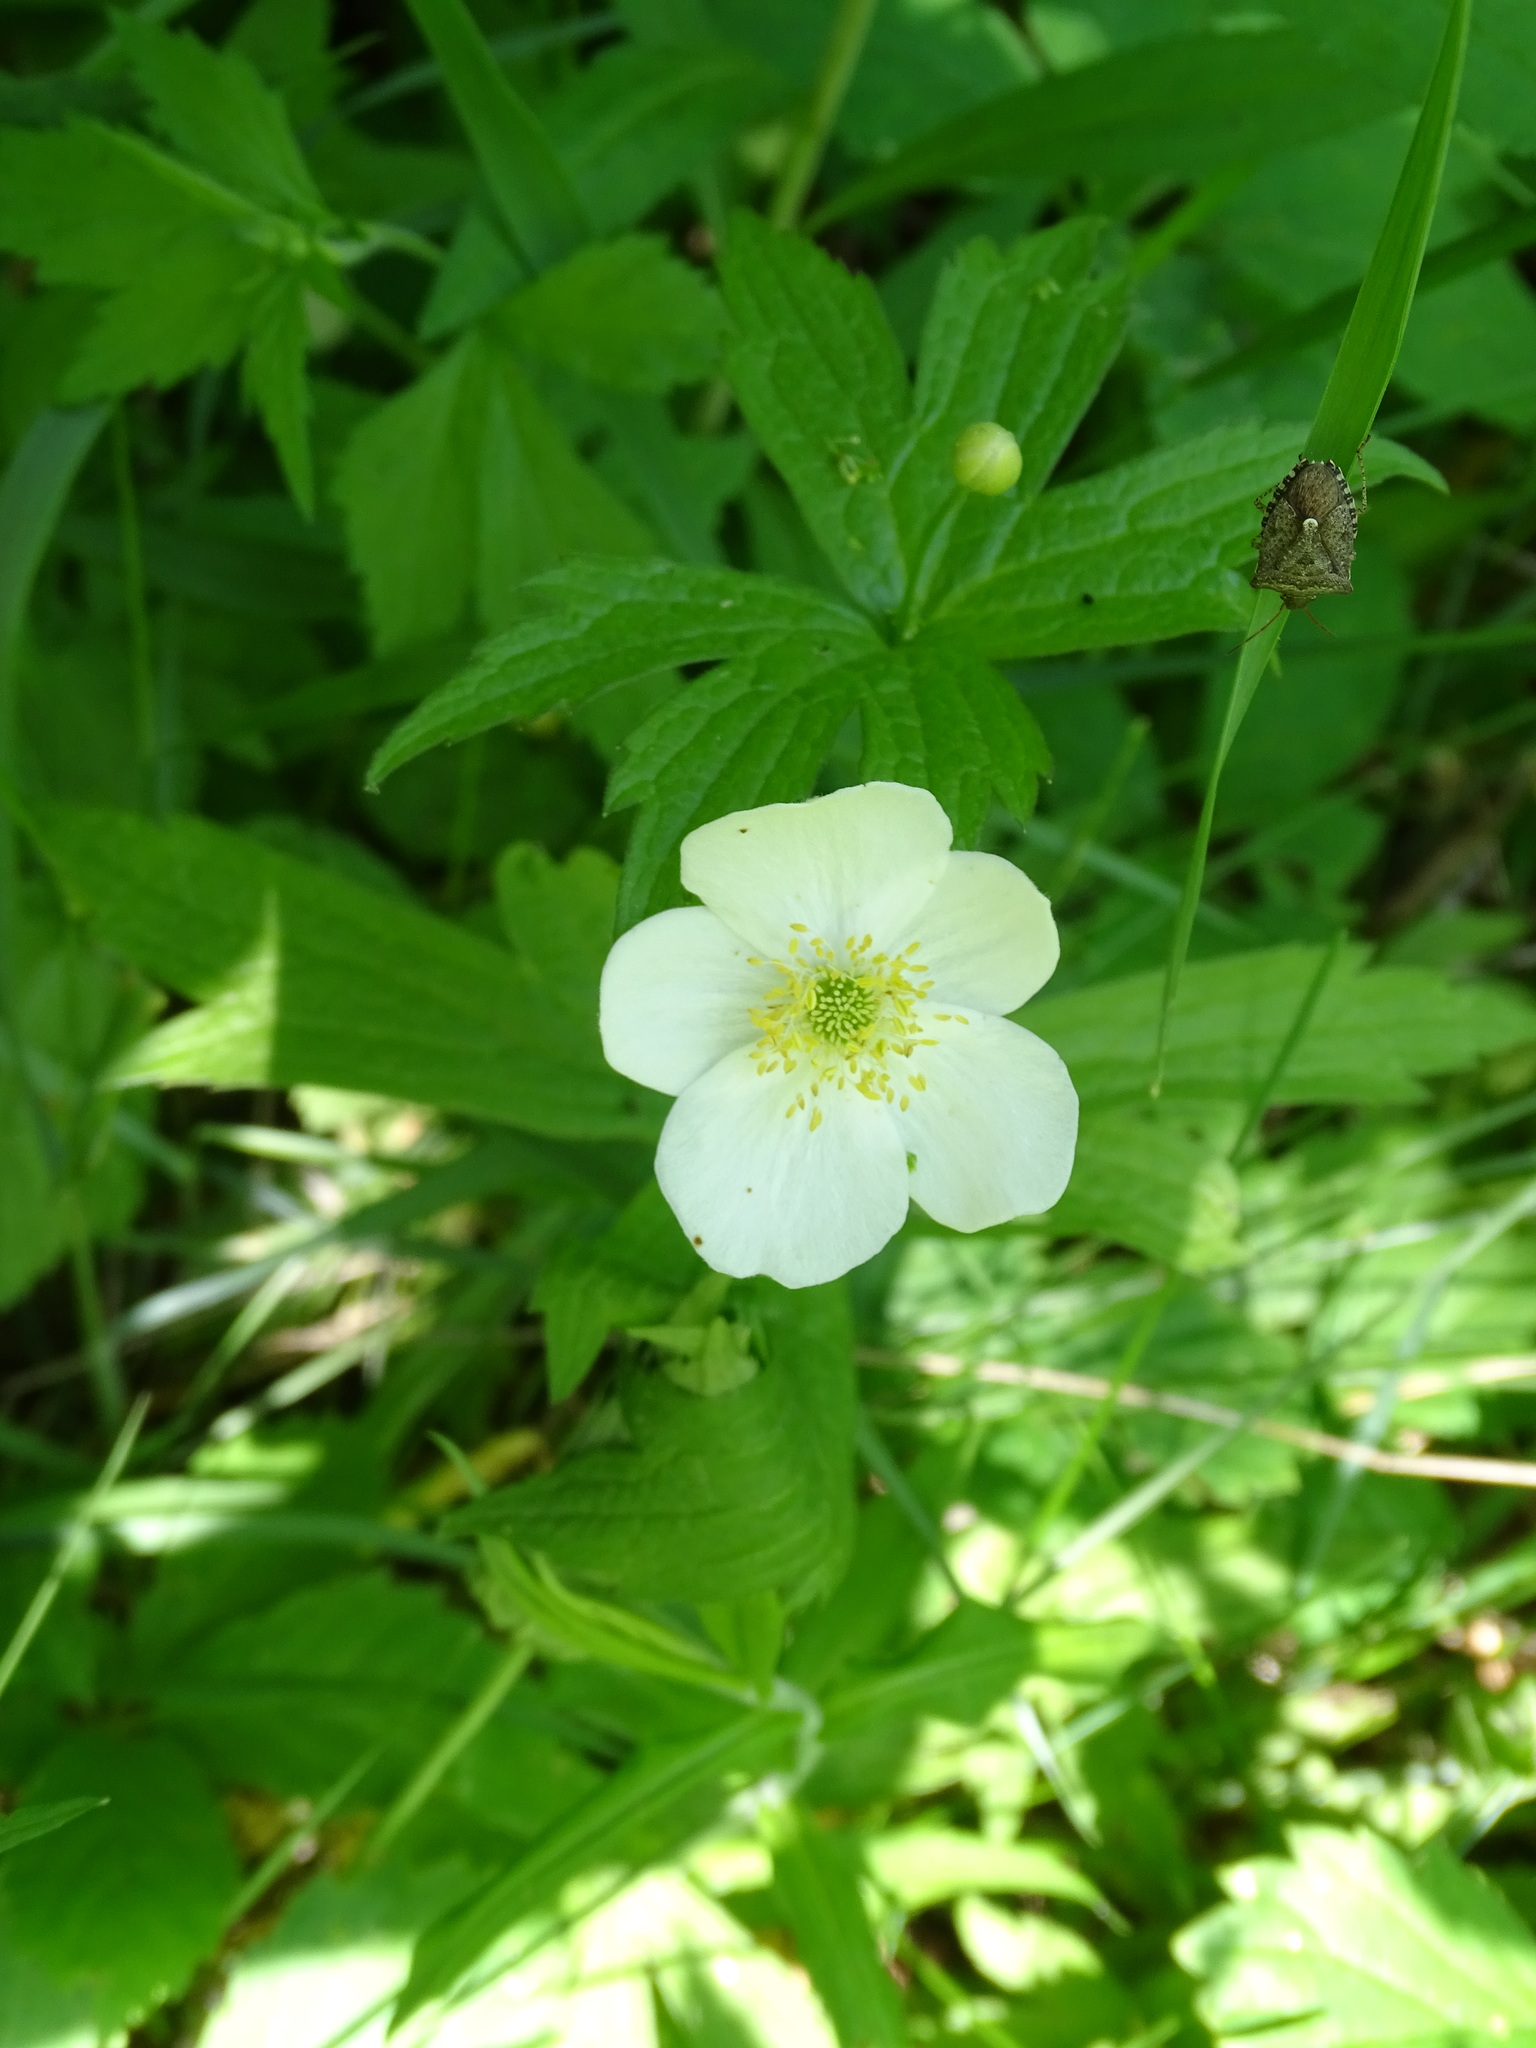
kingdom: Plantae
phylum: Tracheophyta
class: Magnoliopsida
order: Ranunculales
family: Ranunculaceae
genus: Anemonastrum
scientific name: Anemonastrum canadense
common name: Canada anemone
